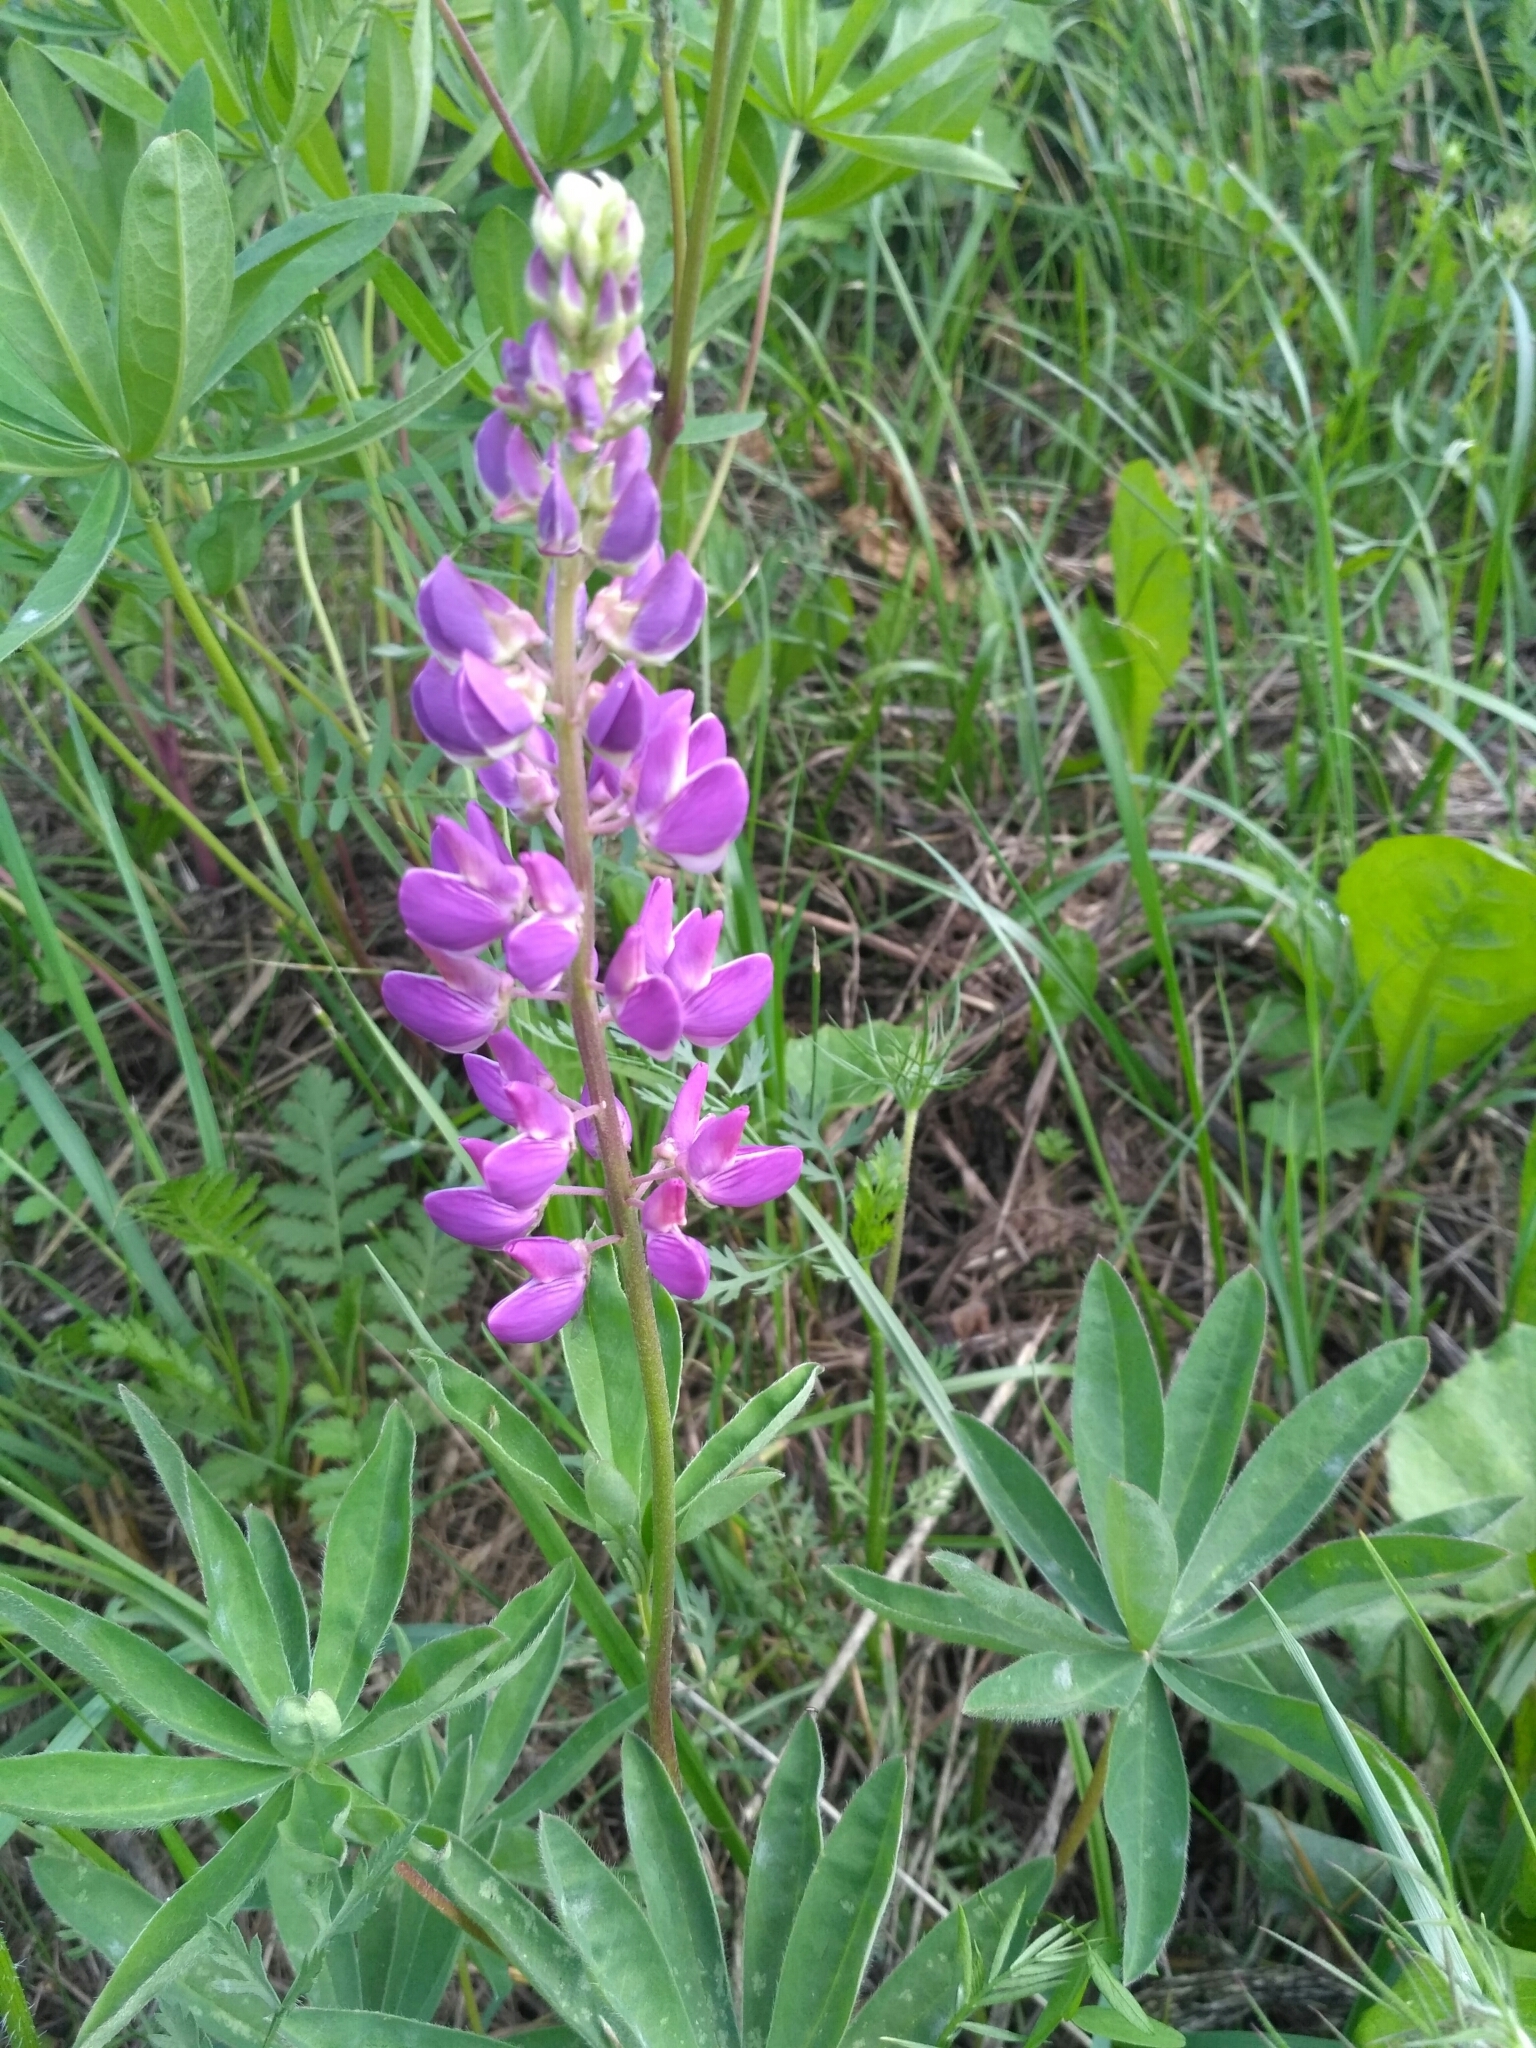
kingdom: Plantae
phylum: Tracheophyta
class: Magnoliopsida
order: Fabales
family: Fabaceae
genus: Lupinus
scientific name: Lupinus polyphyllus
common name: Garden lupin
